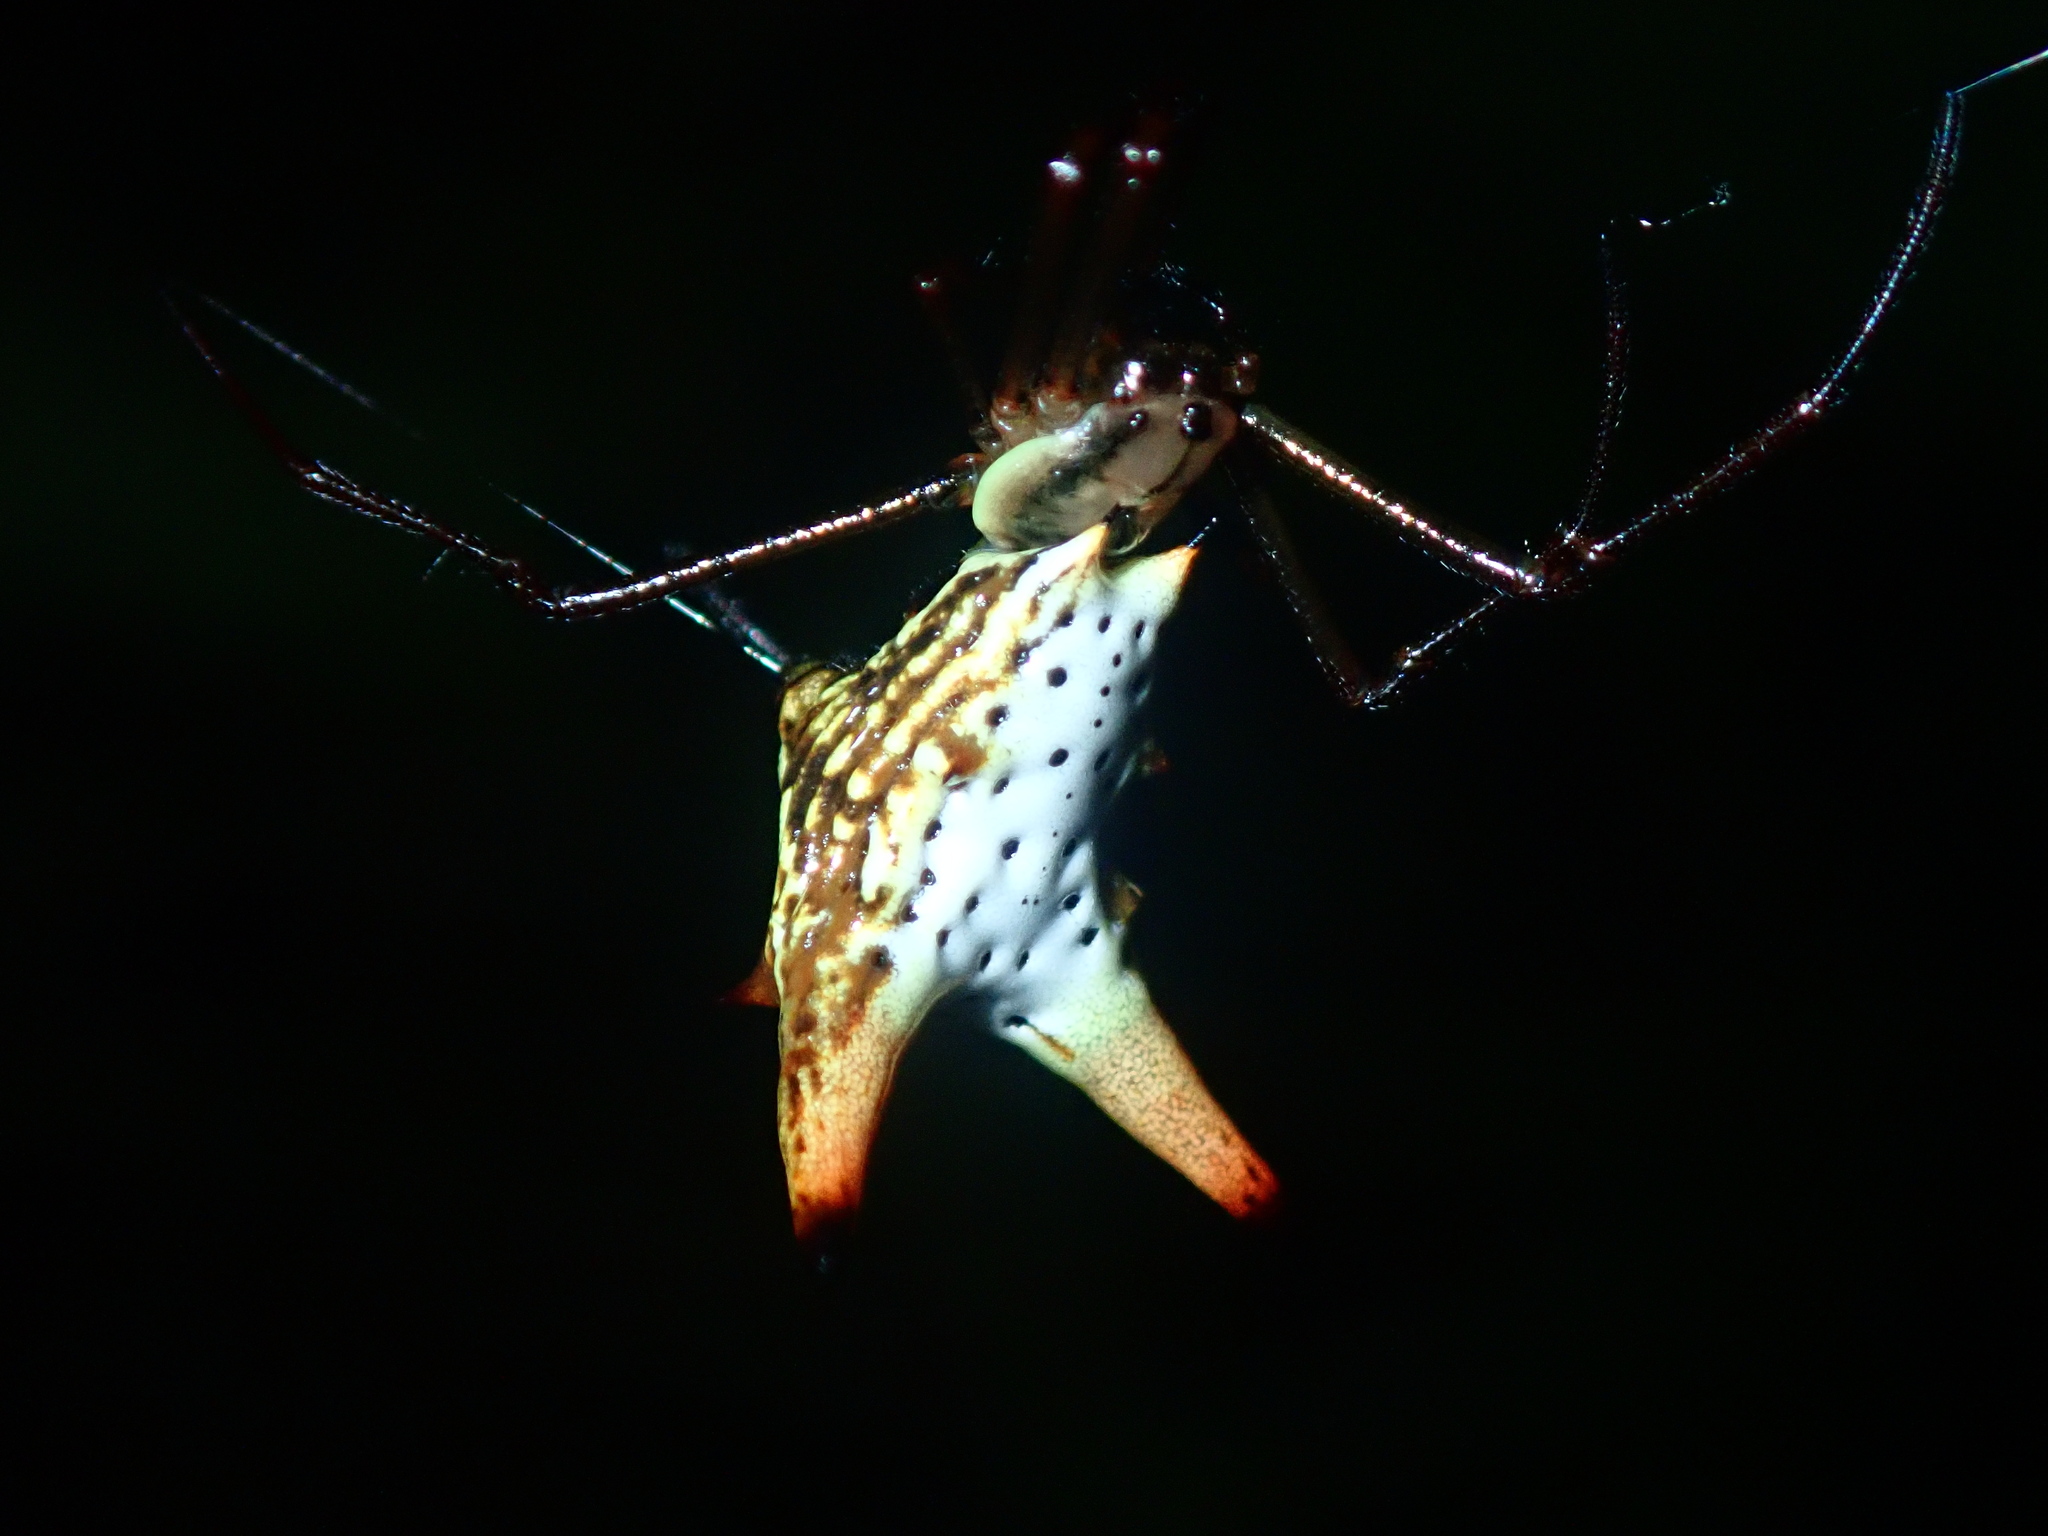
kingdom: Animalia
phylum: Arthropoda
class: Arachnida
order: Araneae
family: Araneidae
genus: Micrathena
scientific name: Micrathena macfarlanei
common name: Orb weavers
